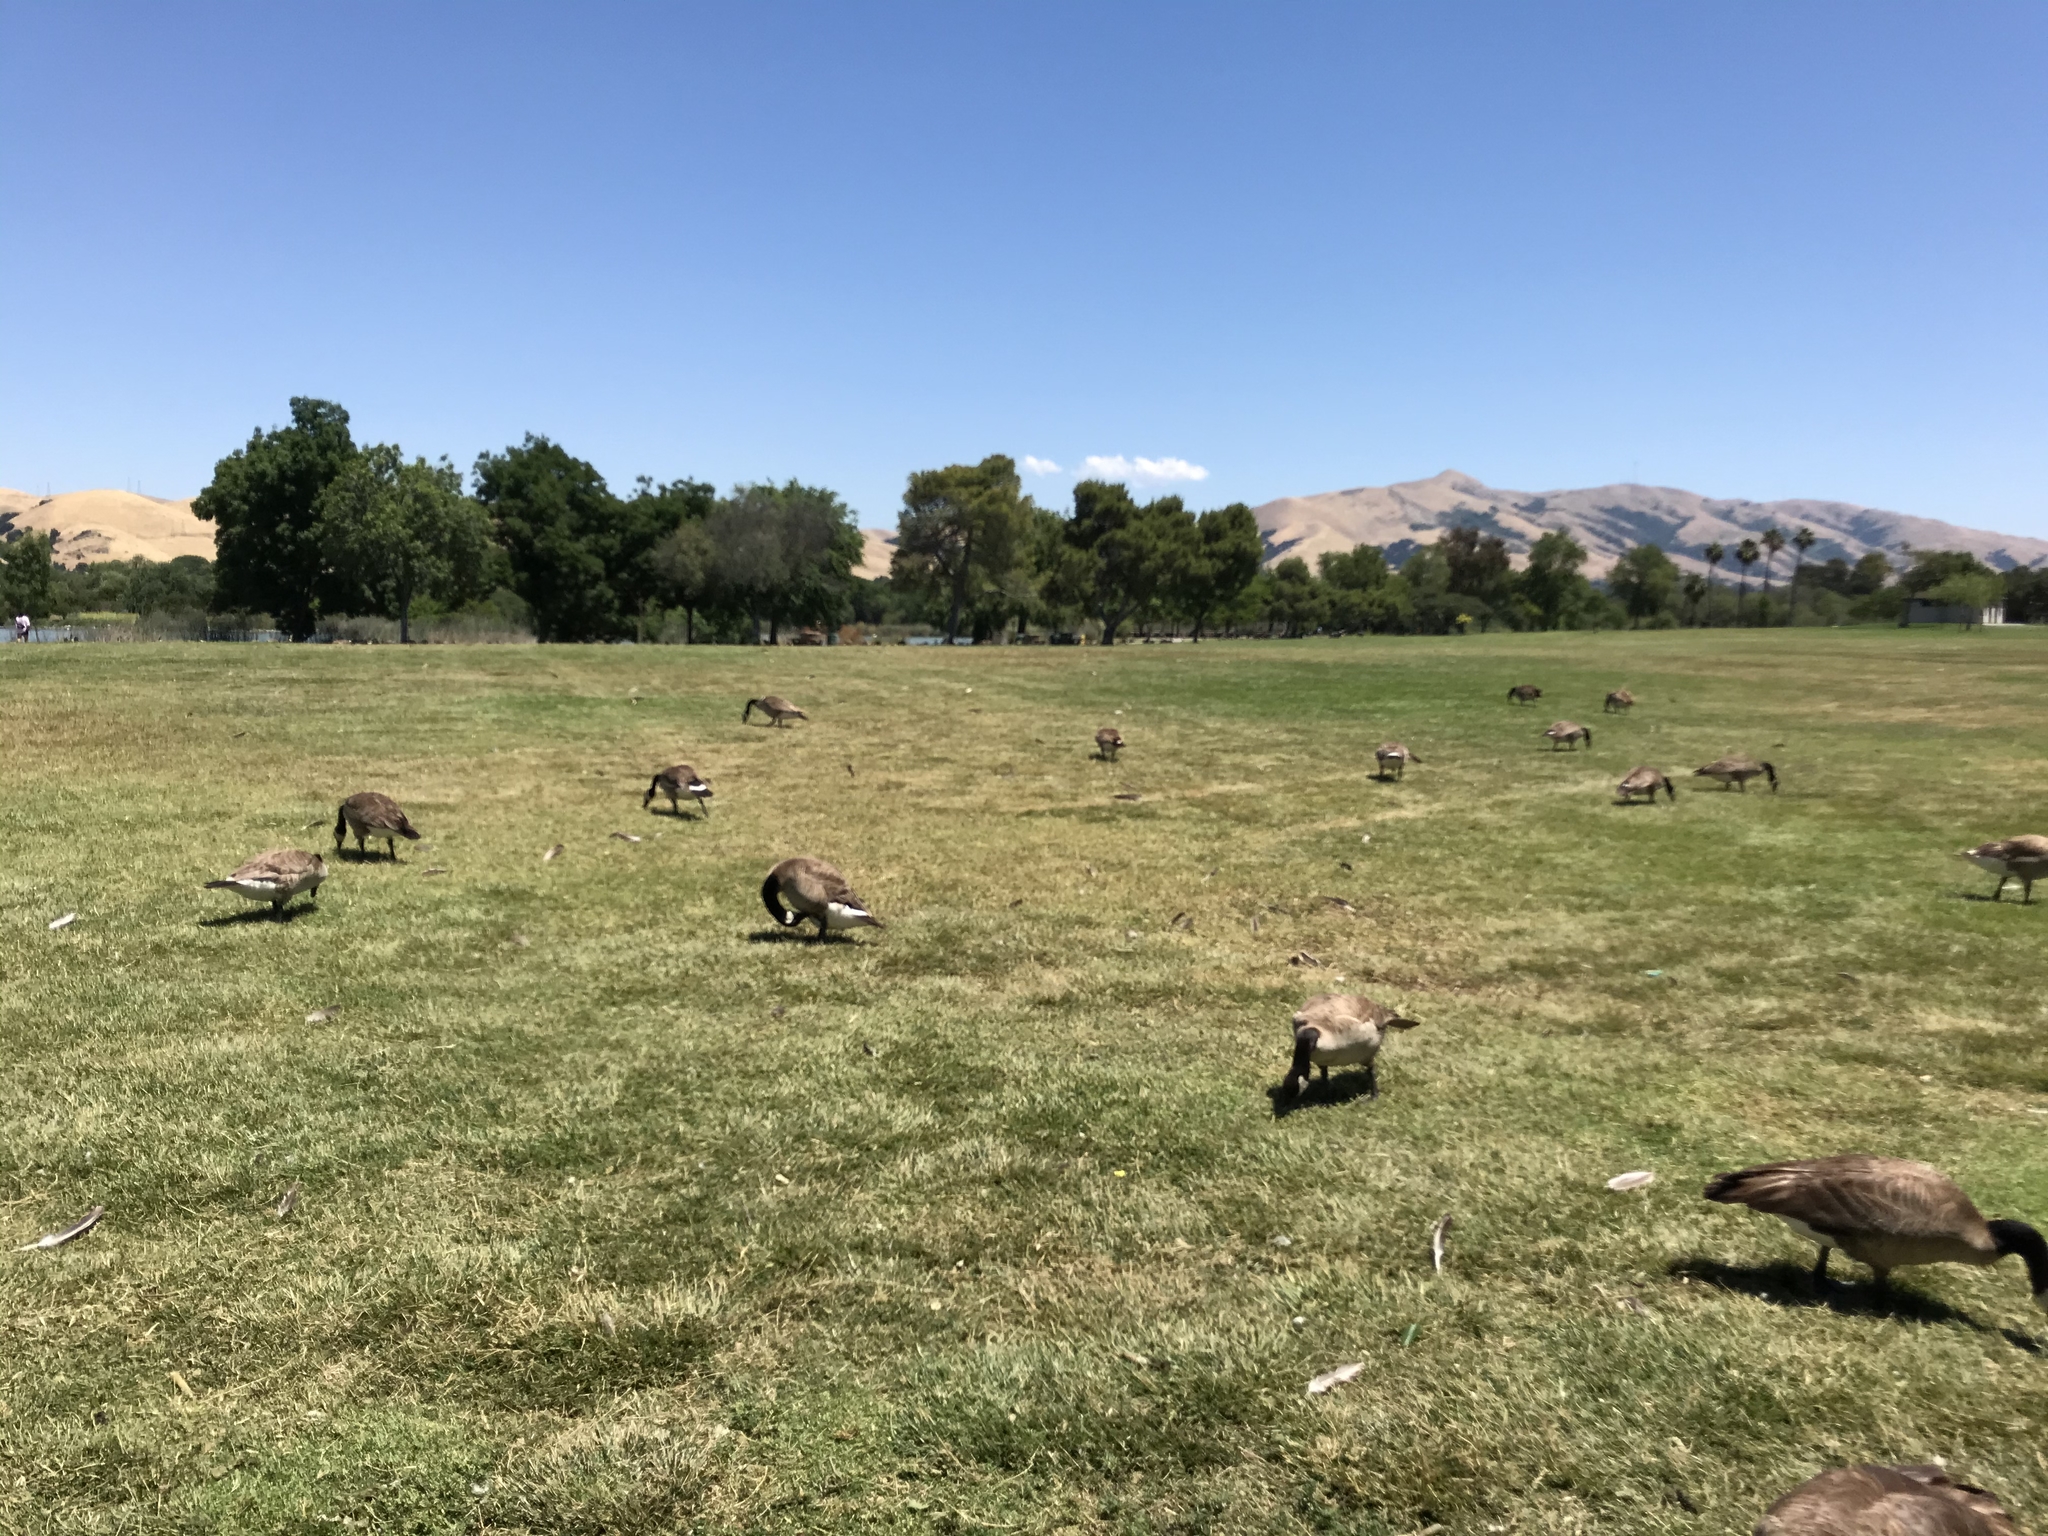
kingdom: Animalia
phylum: Chordata
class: Aves
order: Anseriformes
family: Anatidae
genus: Branta
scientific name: Branta canadensis
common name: Canada goose
